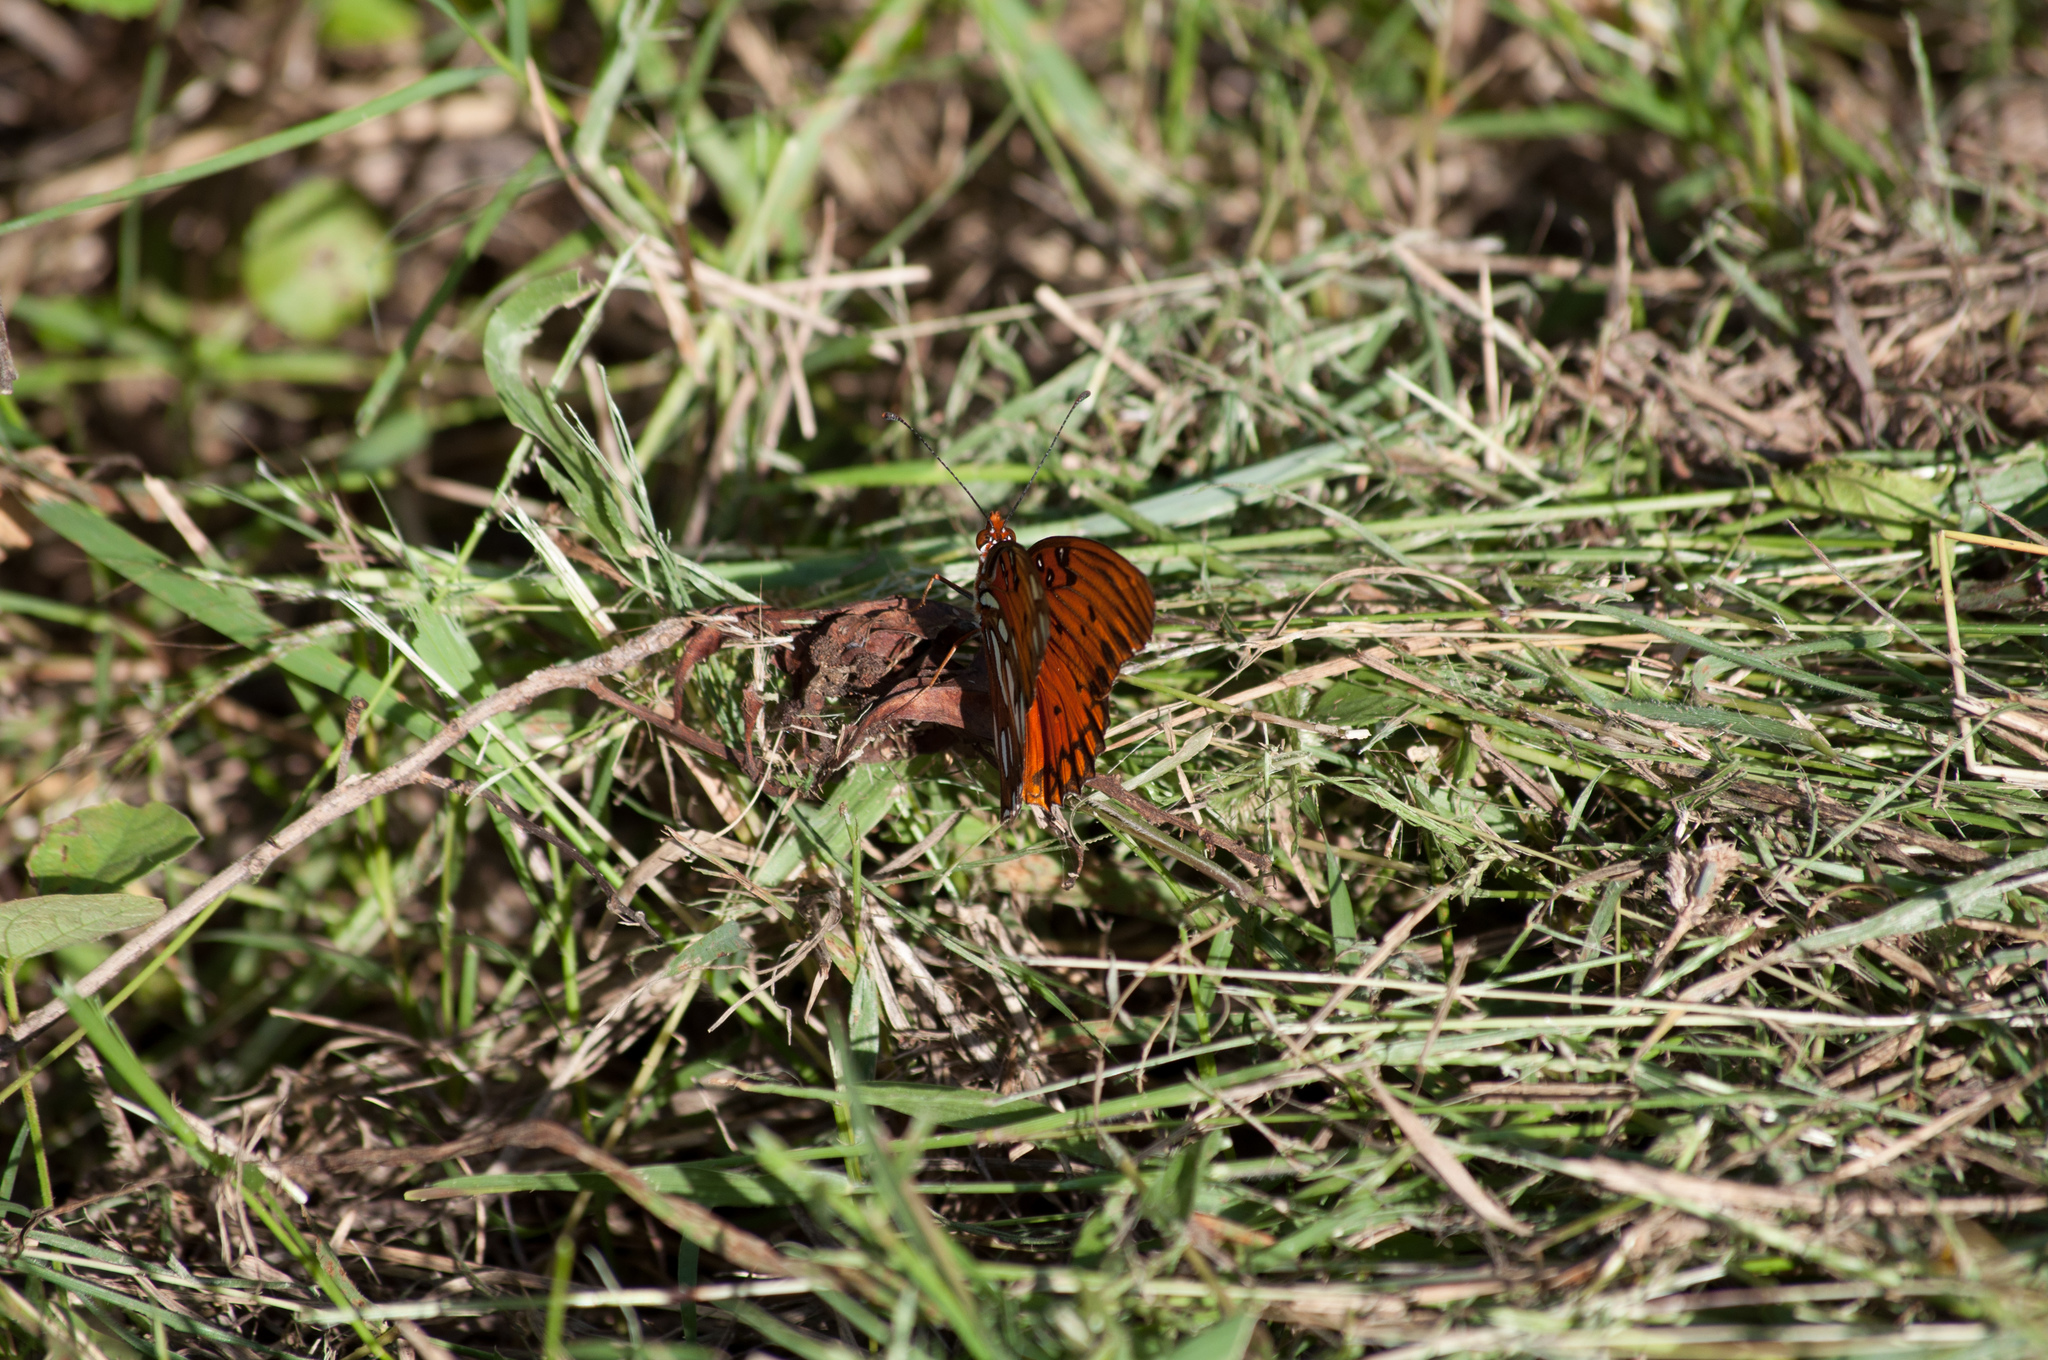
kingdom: Animalia
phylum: Arthropoda
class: Insecta
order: Lepidoptera
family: Nymphalidae
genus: Dione
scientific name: Dione vanillae
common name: Gulf fritillary
